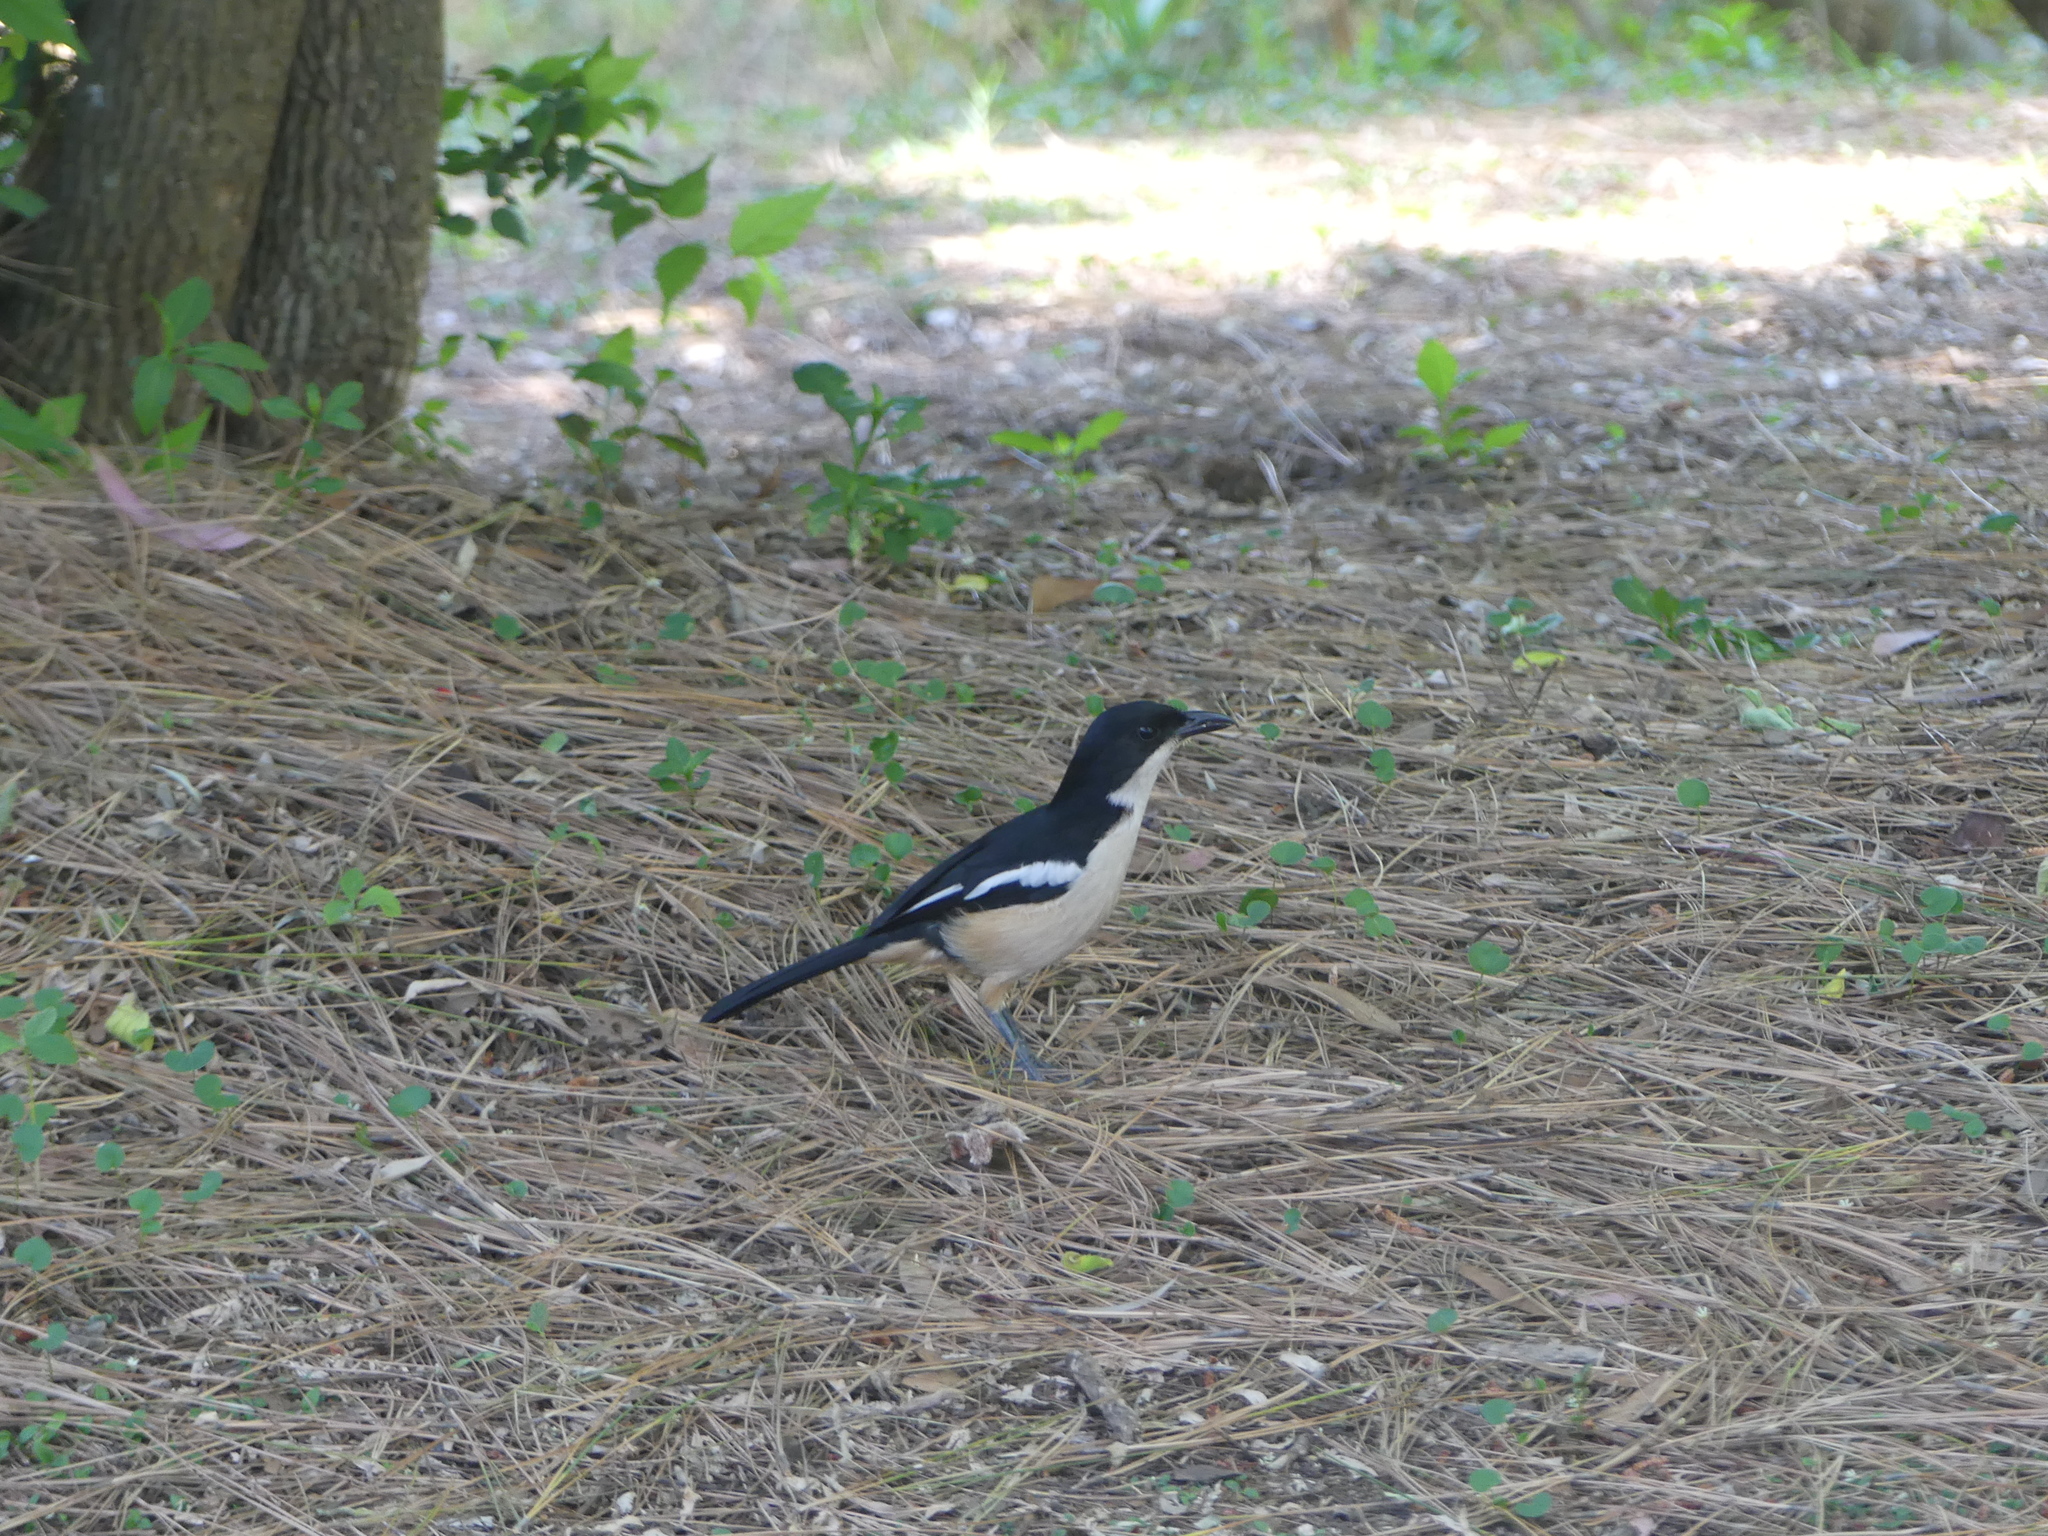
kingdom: Animalia
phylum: Chordata
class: Aves
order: Passeriformes
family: Malaconotidae
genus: Laniarius
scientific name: Laniarius ferrugineus
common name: Southern boubou
